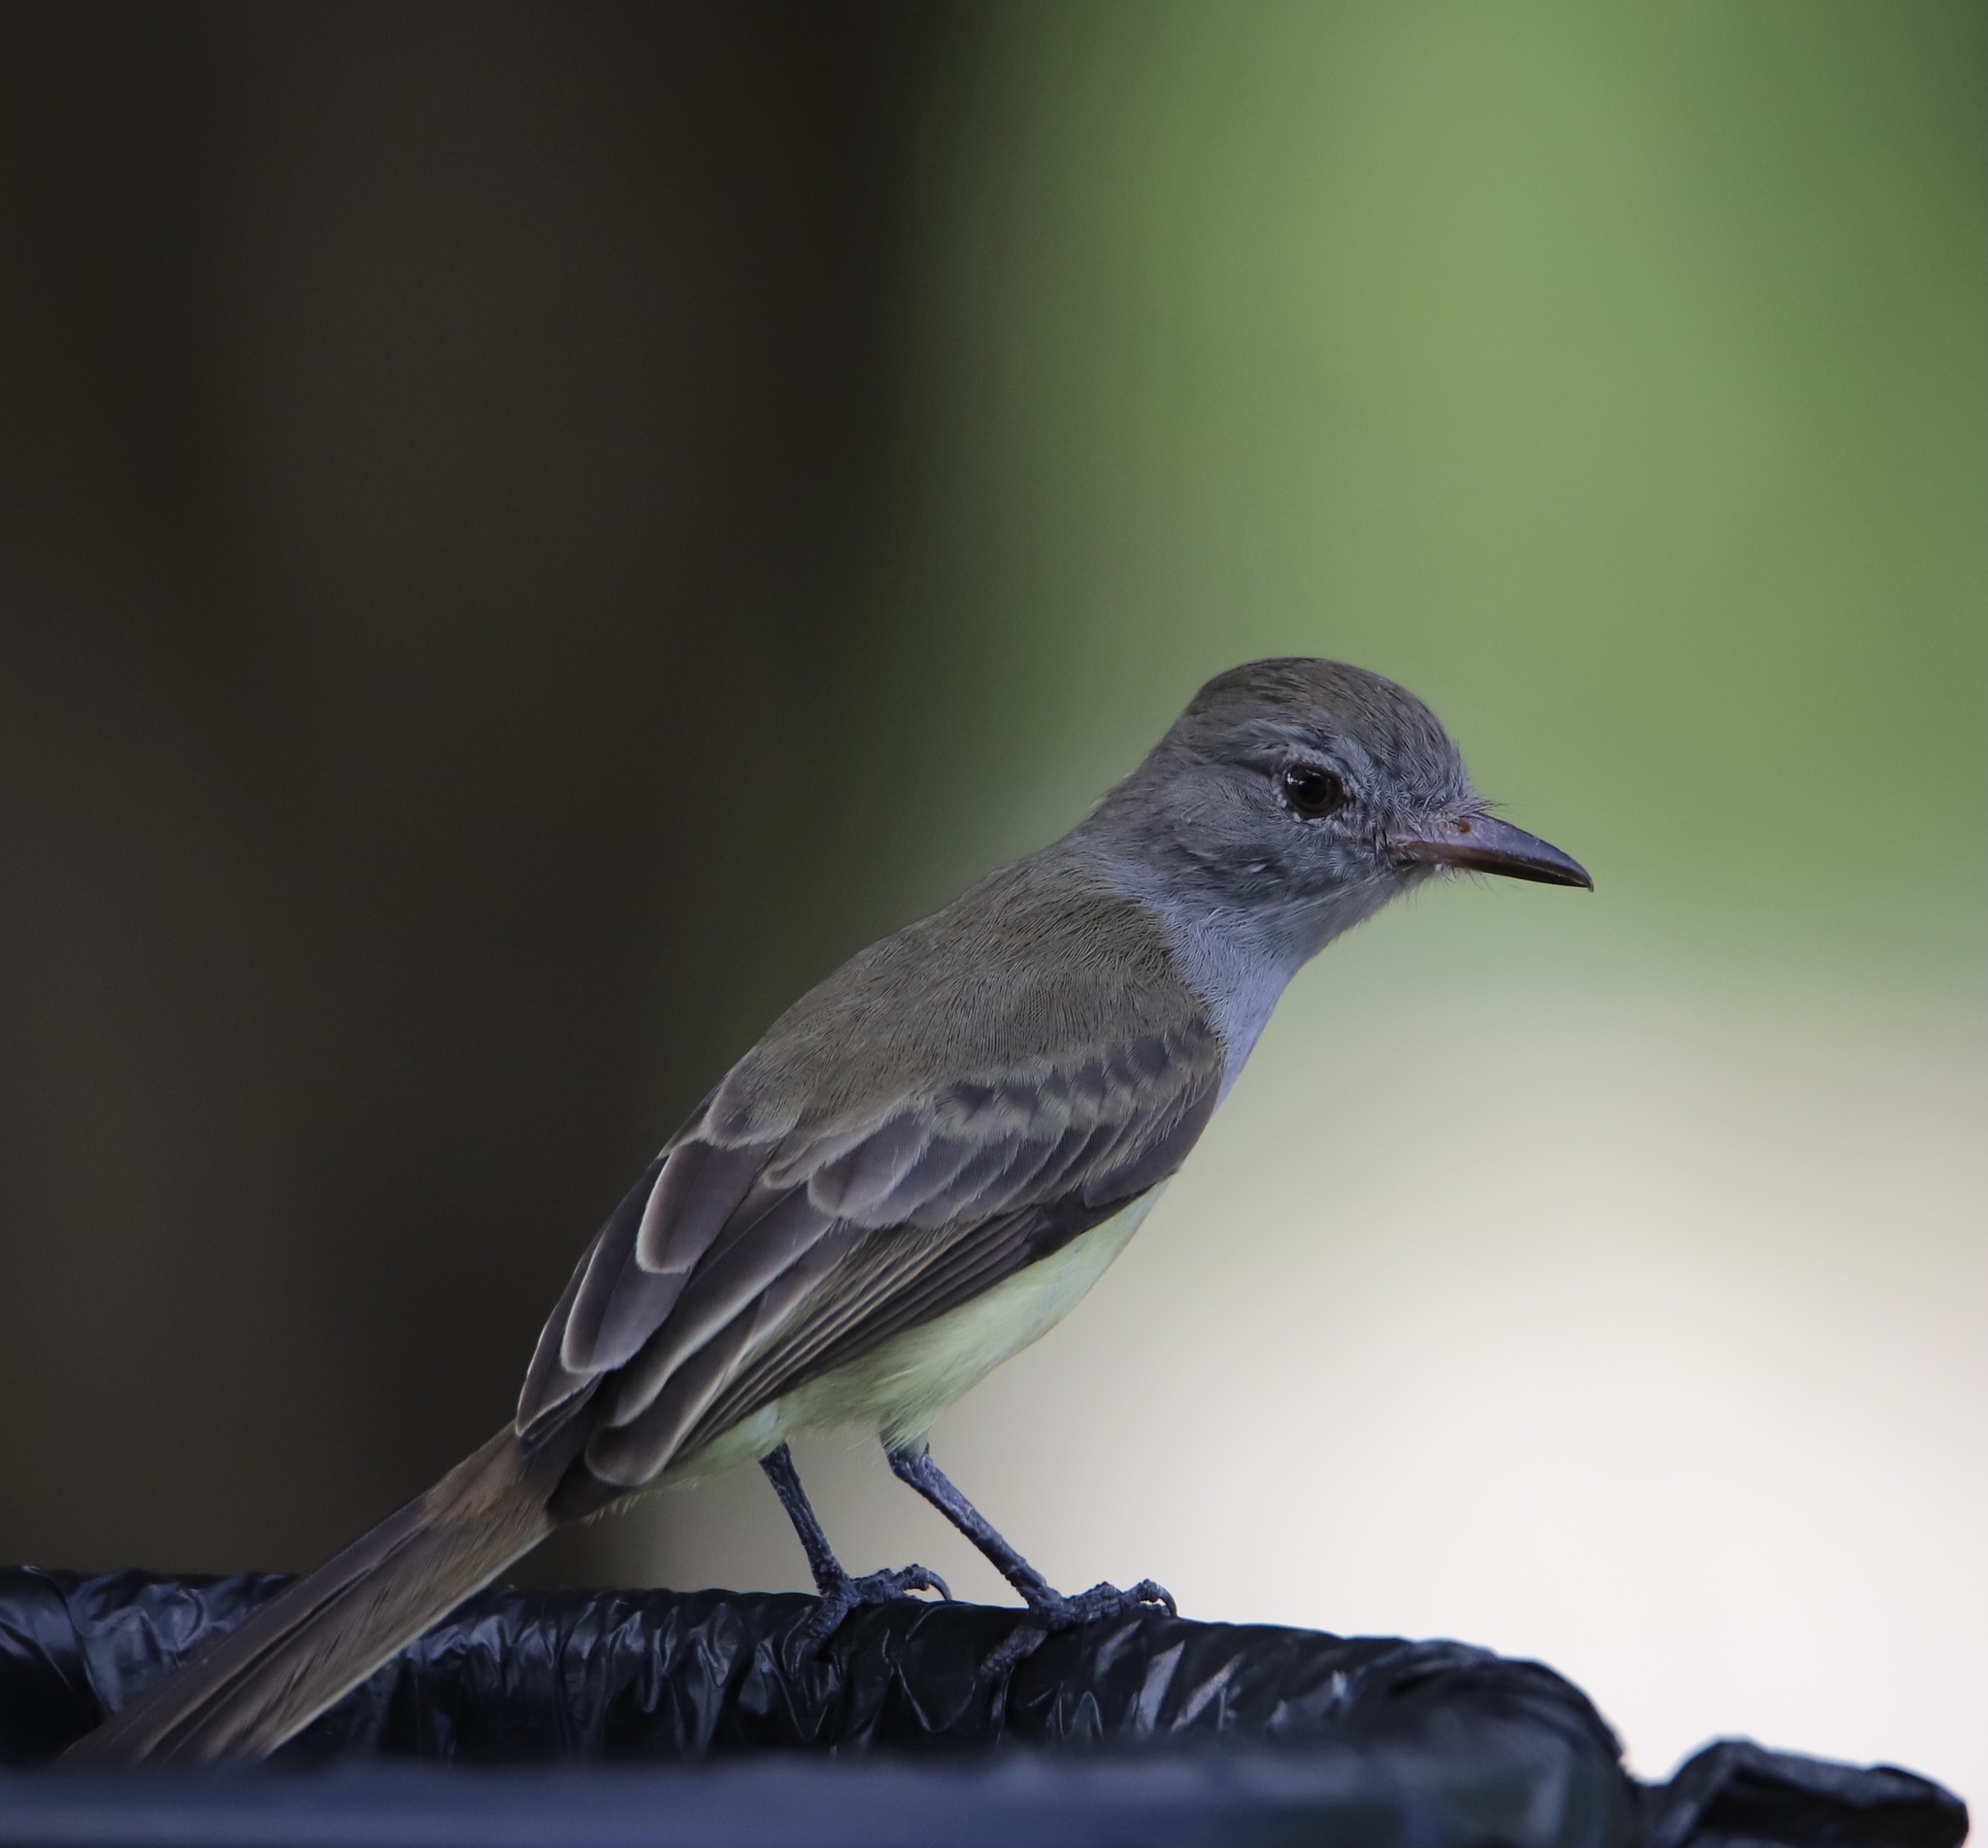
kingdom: Animalia
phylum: Chordata
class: Aves
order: Passeriformes
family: Tyrannidae
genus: Myiarchus
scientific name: Myiarchus panamensis
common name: Panama flycatcher
